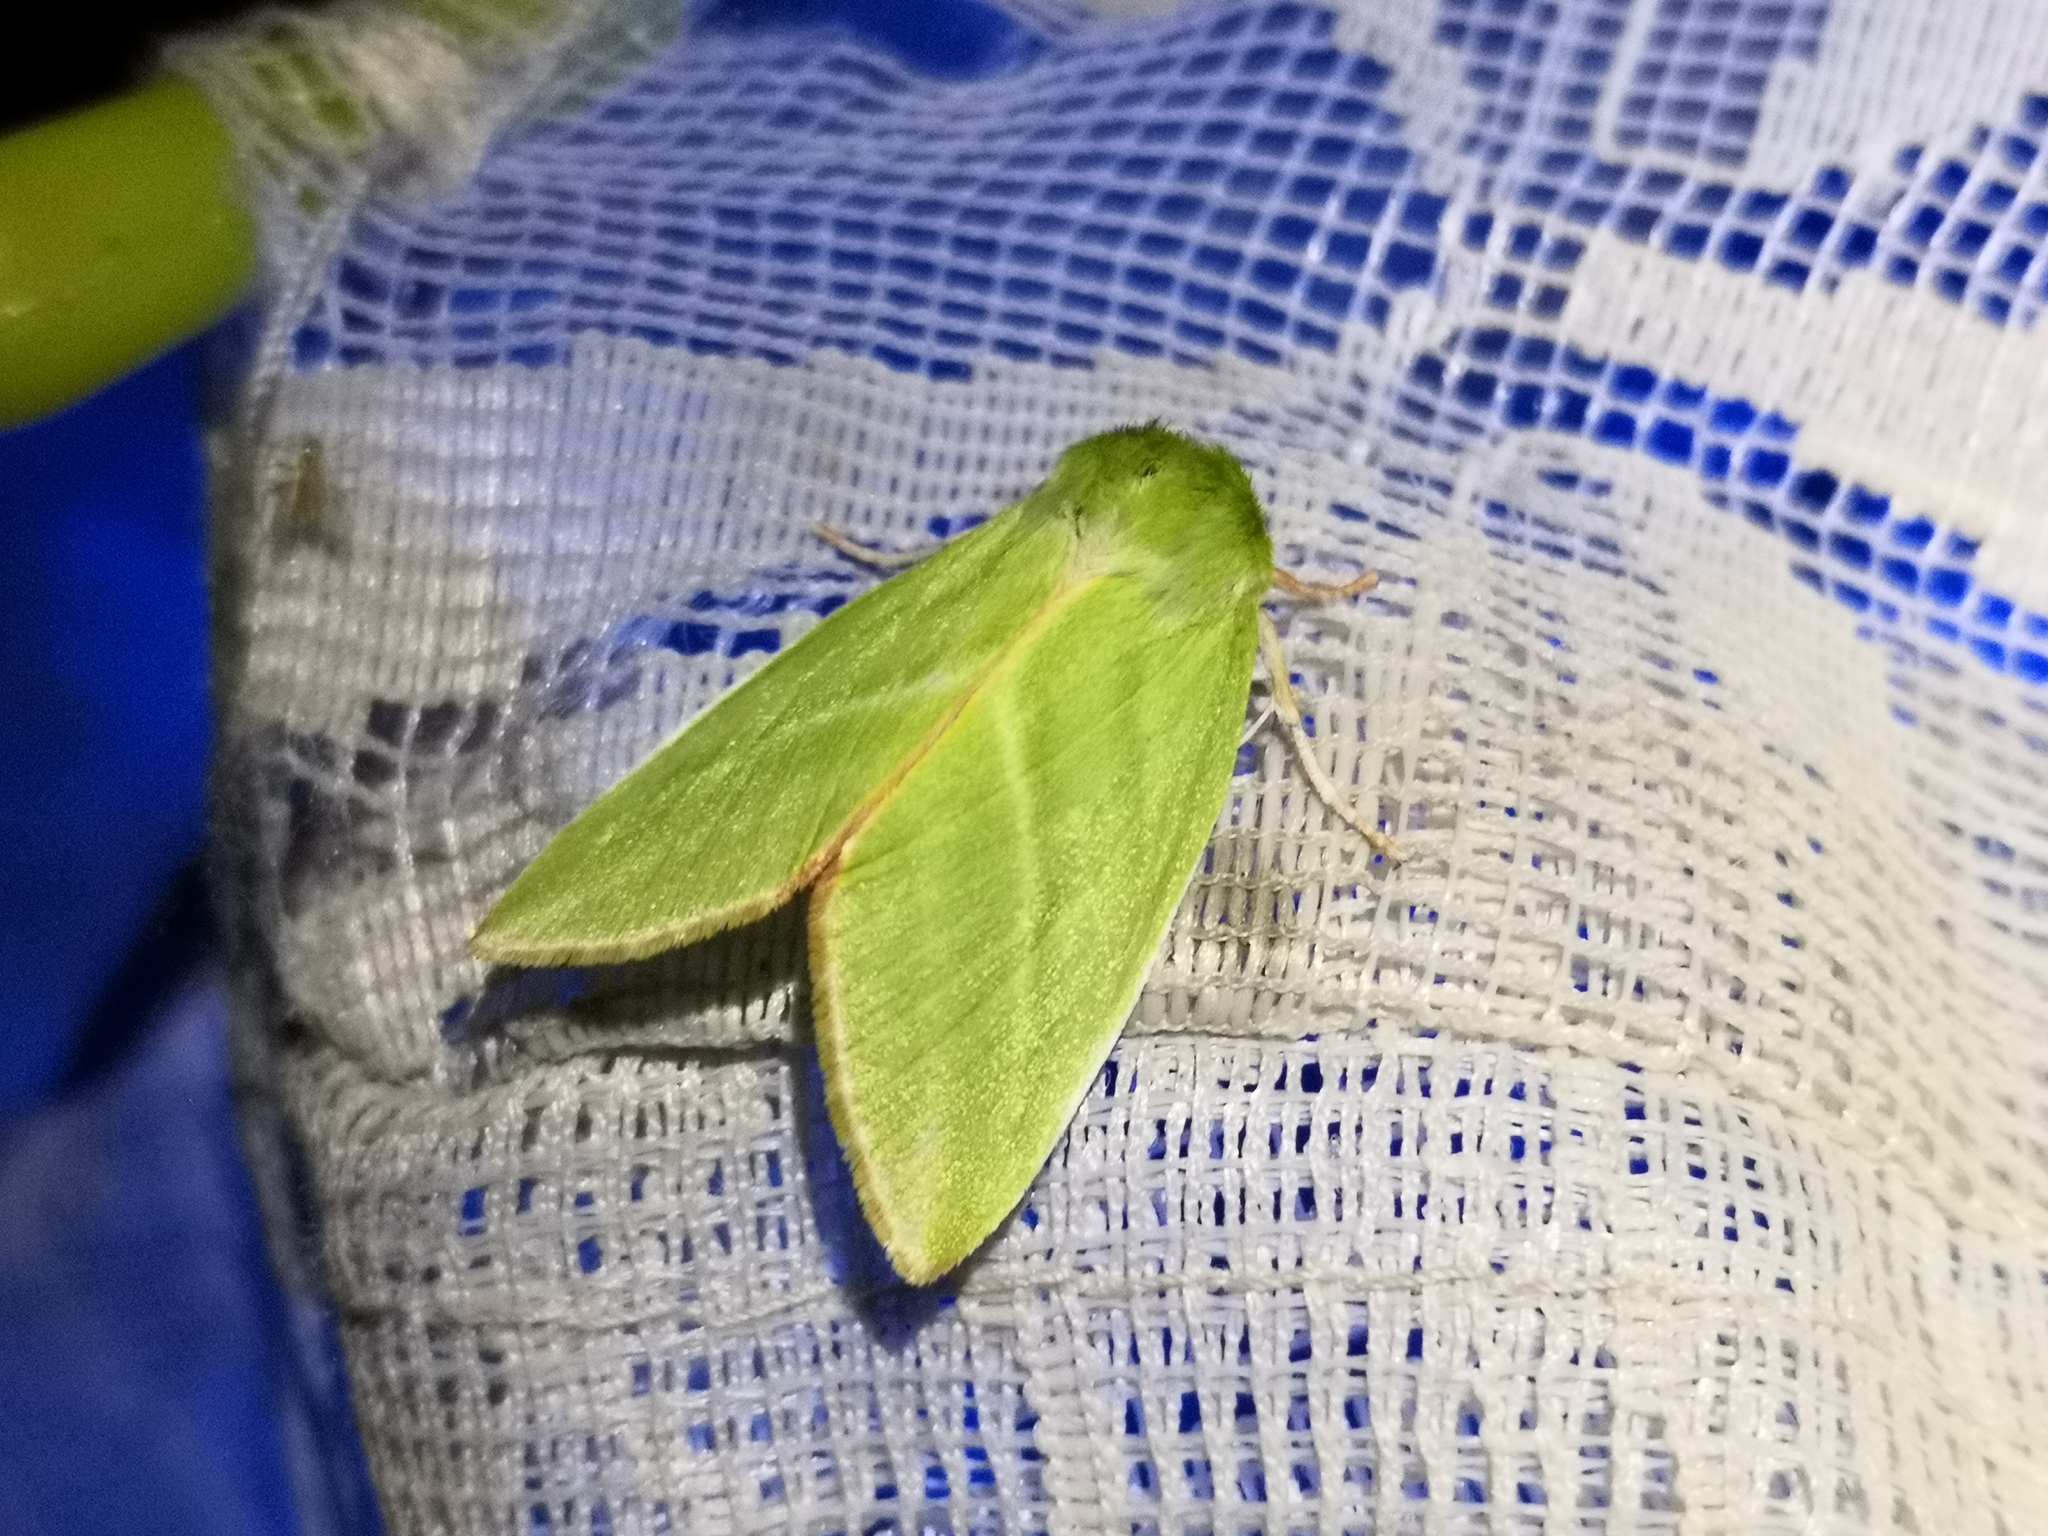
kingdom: Animalia
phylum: Arthropoda
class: Insecta
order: Lepidoptera
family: Nolidae
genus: Pseudoips
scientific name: Pseudoips prasinana
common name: Green silver-lines
